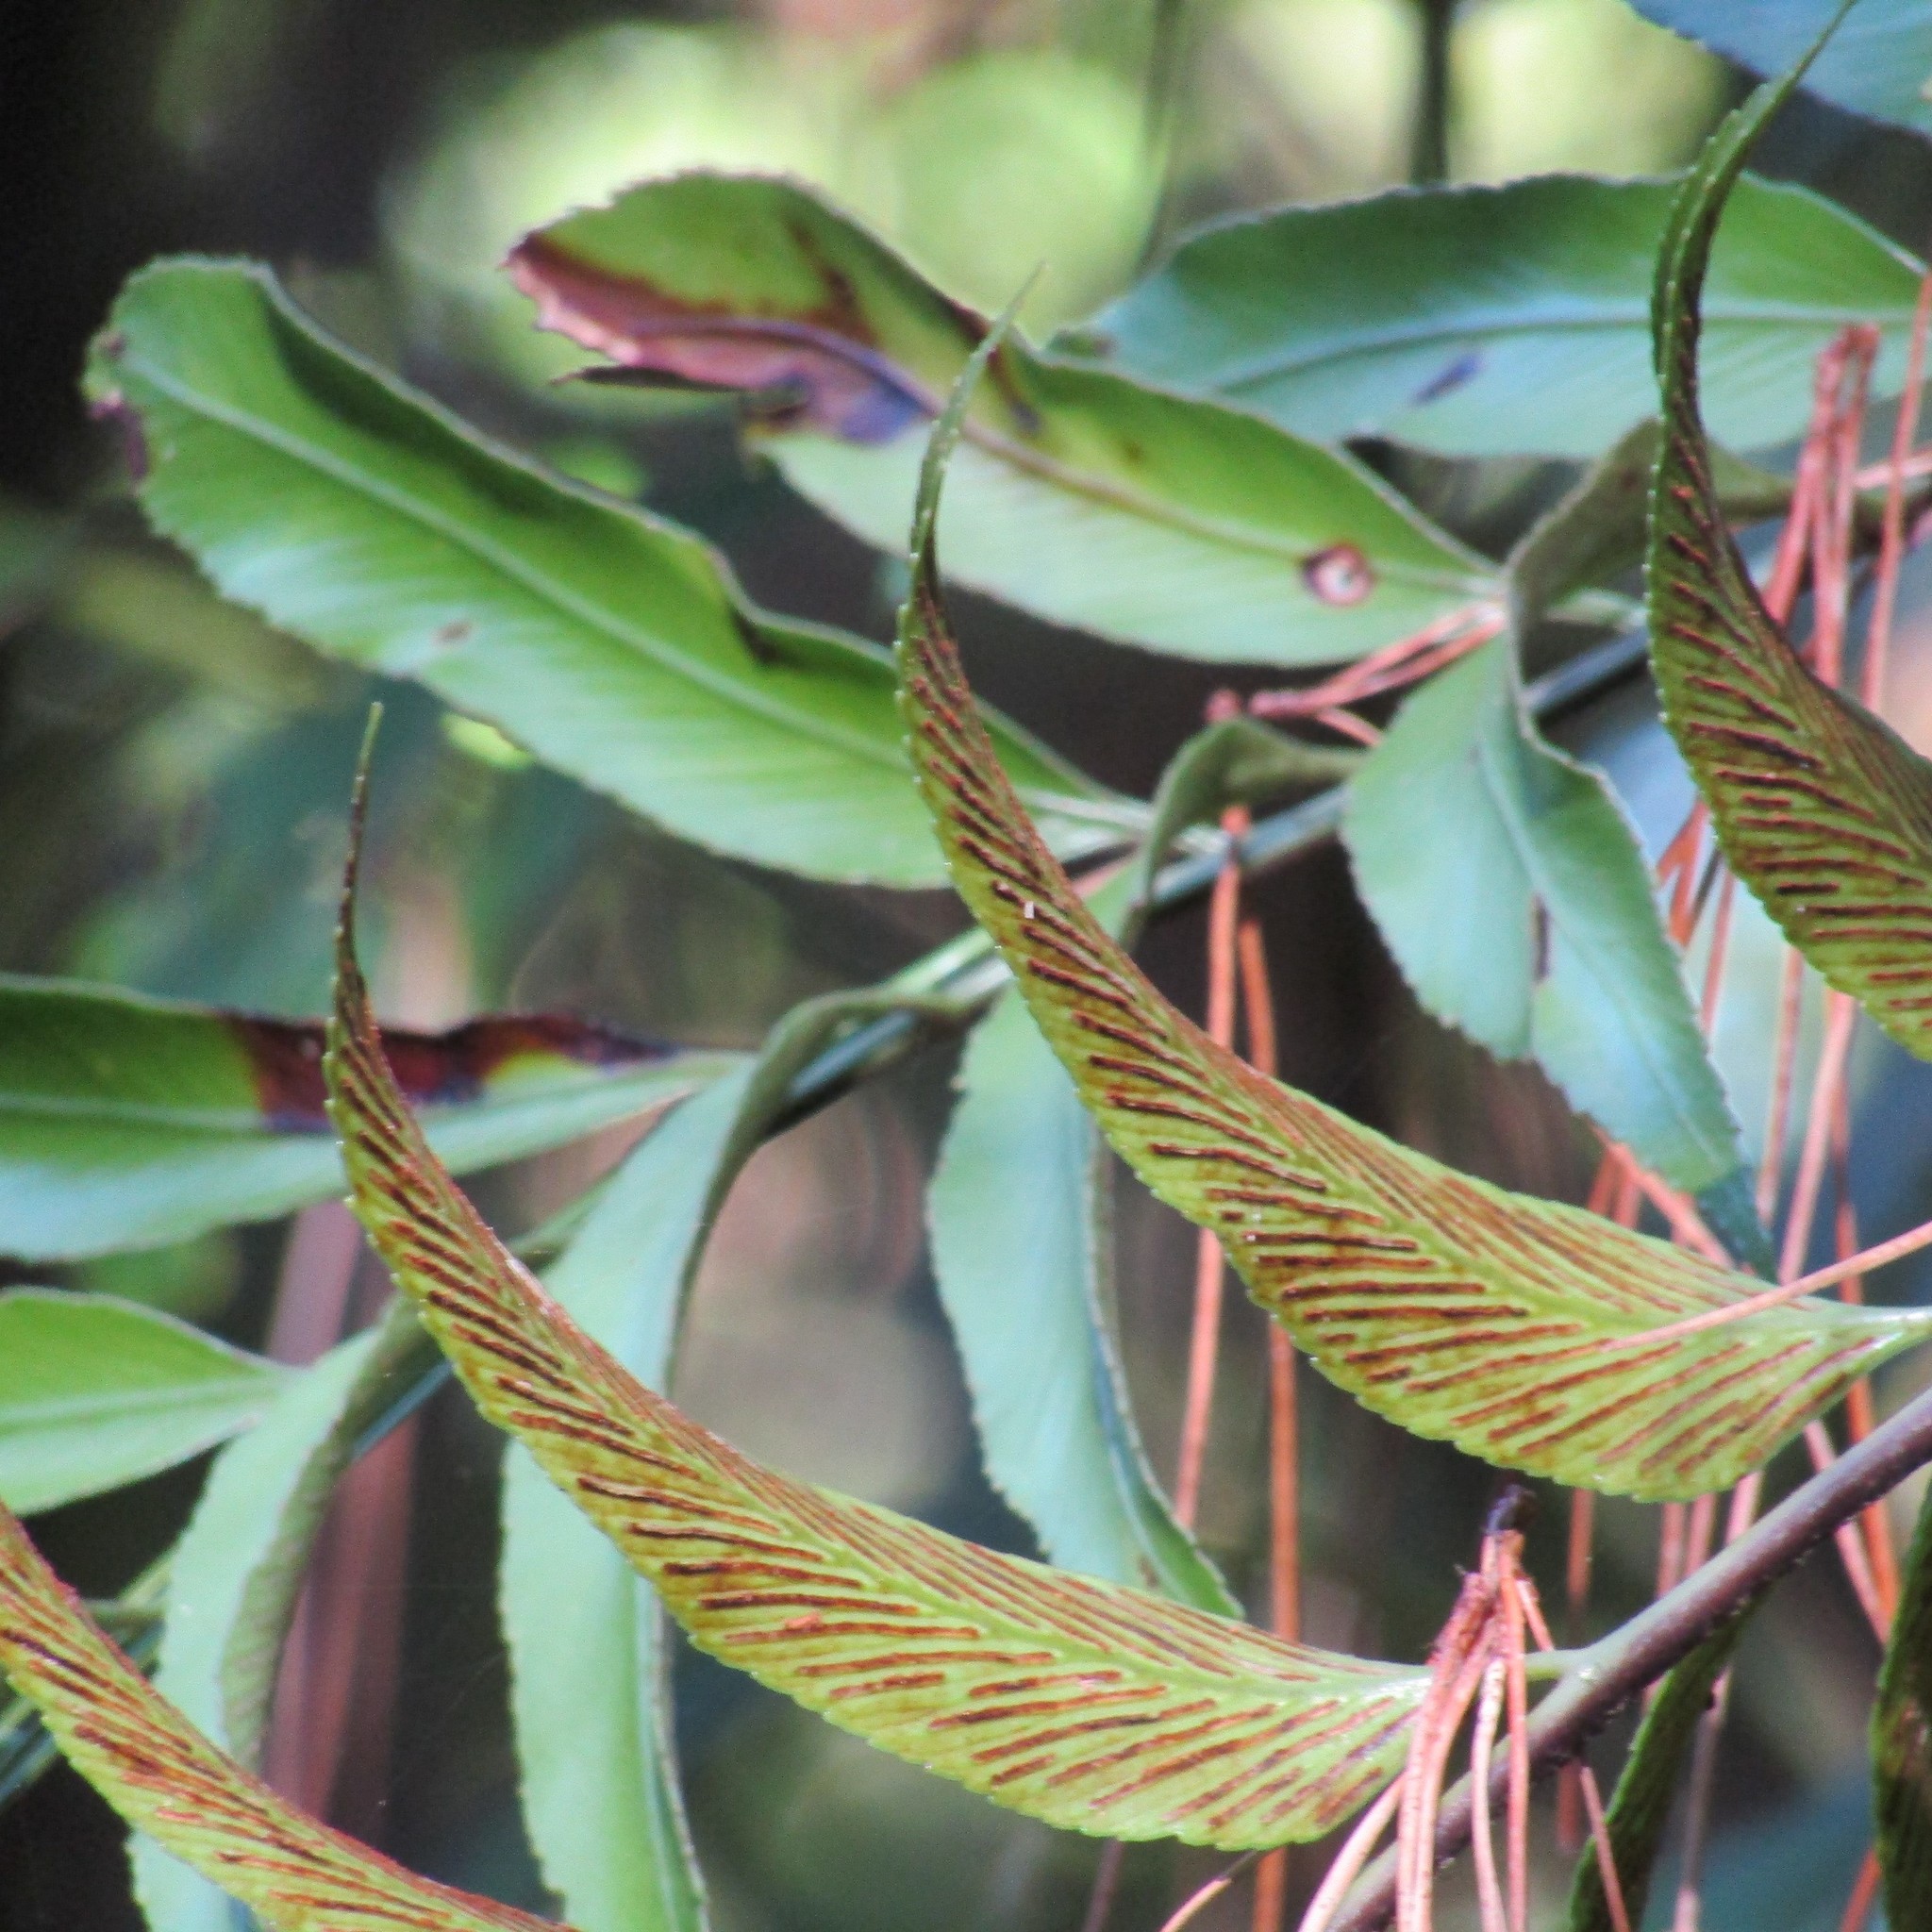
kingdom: Plantae
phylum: Tracheophyta
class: Polypodiopsida
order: Polypodiales
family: Aspleniaceae
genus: Asplenium
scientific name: Asplenium oblongifolium
